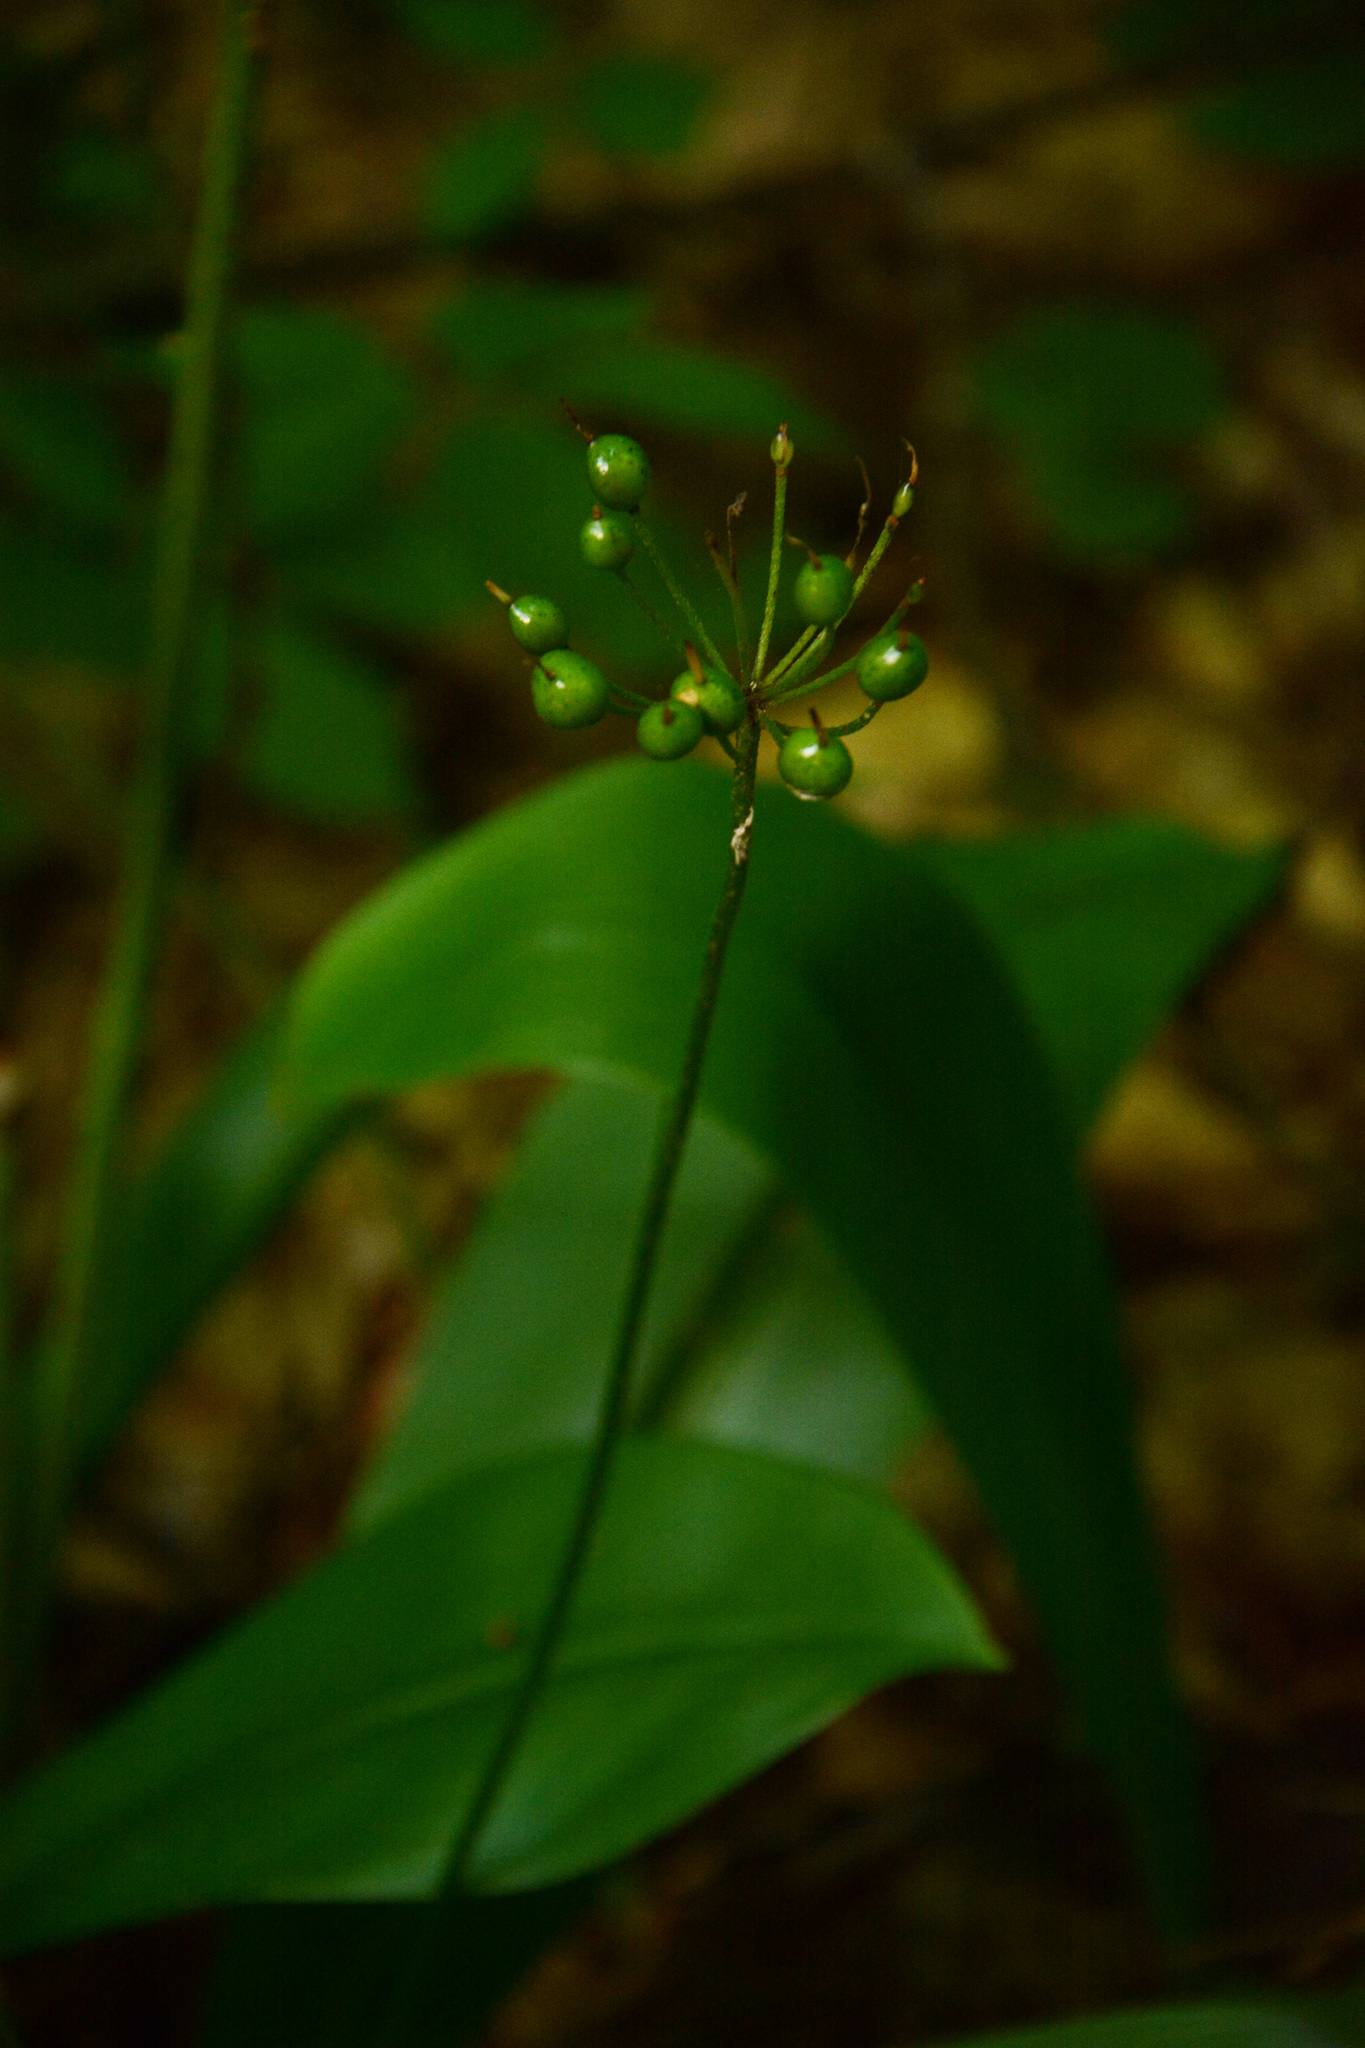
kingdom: Plantae
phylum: Tracheophyta
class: Liliopsida
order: Liliales
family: Liliaceae
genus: Clintonia
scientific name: Clintonia umbellulata
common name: Speckle wood-lily
